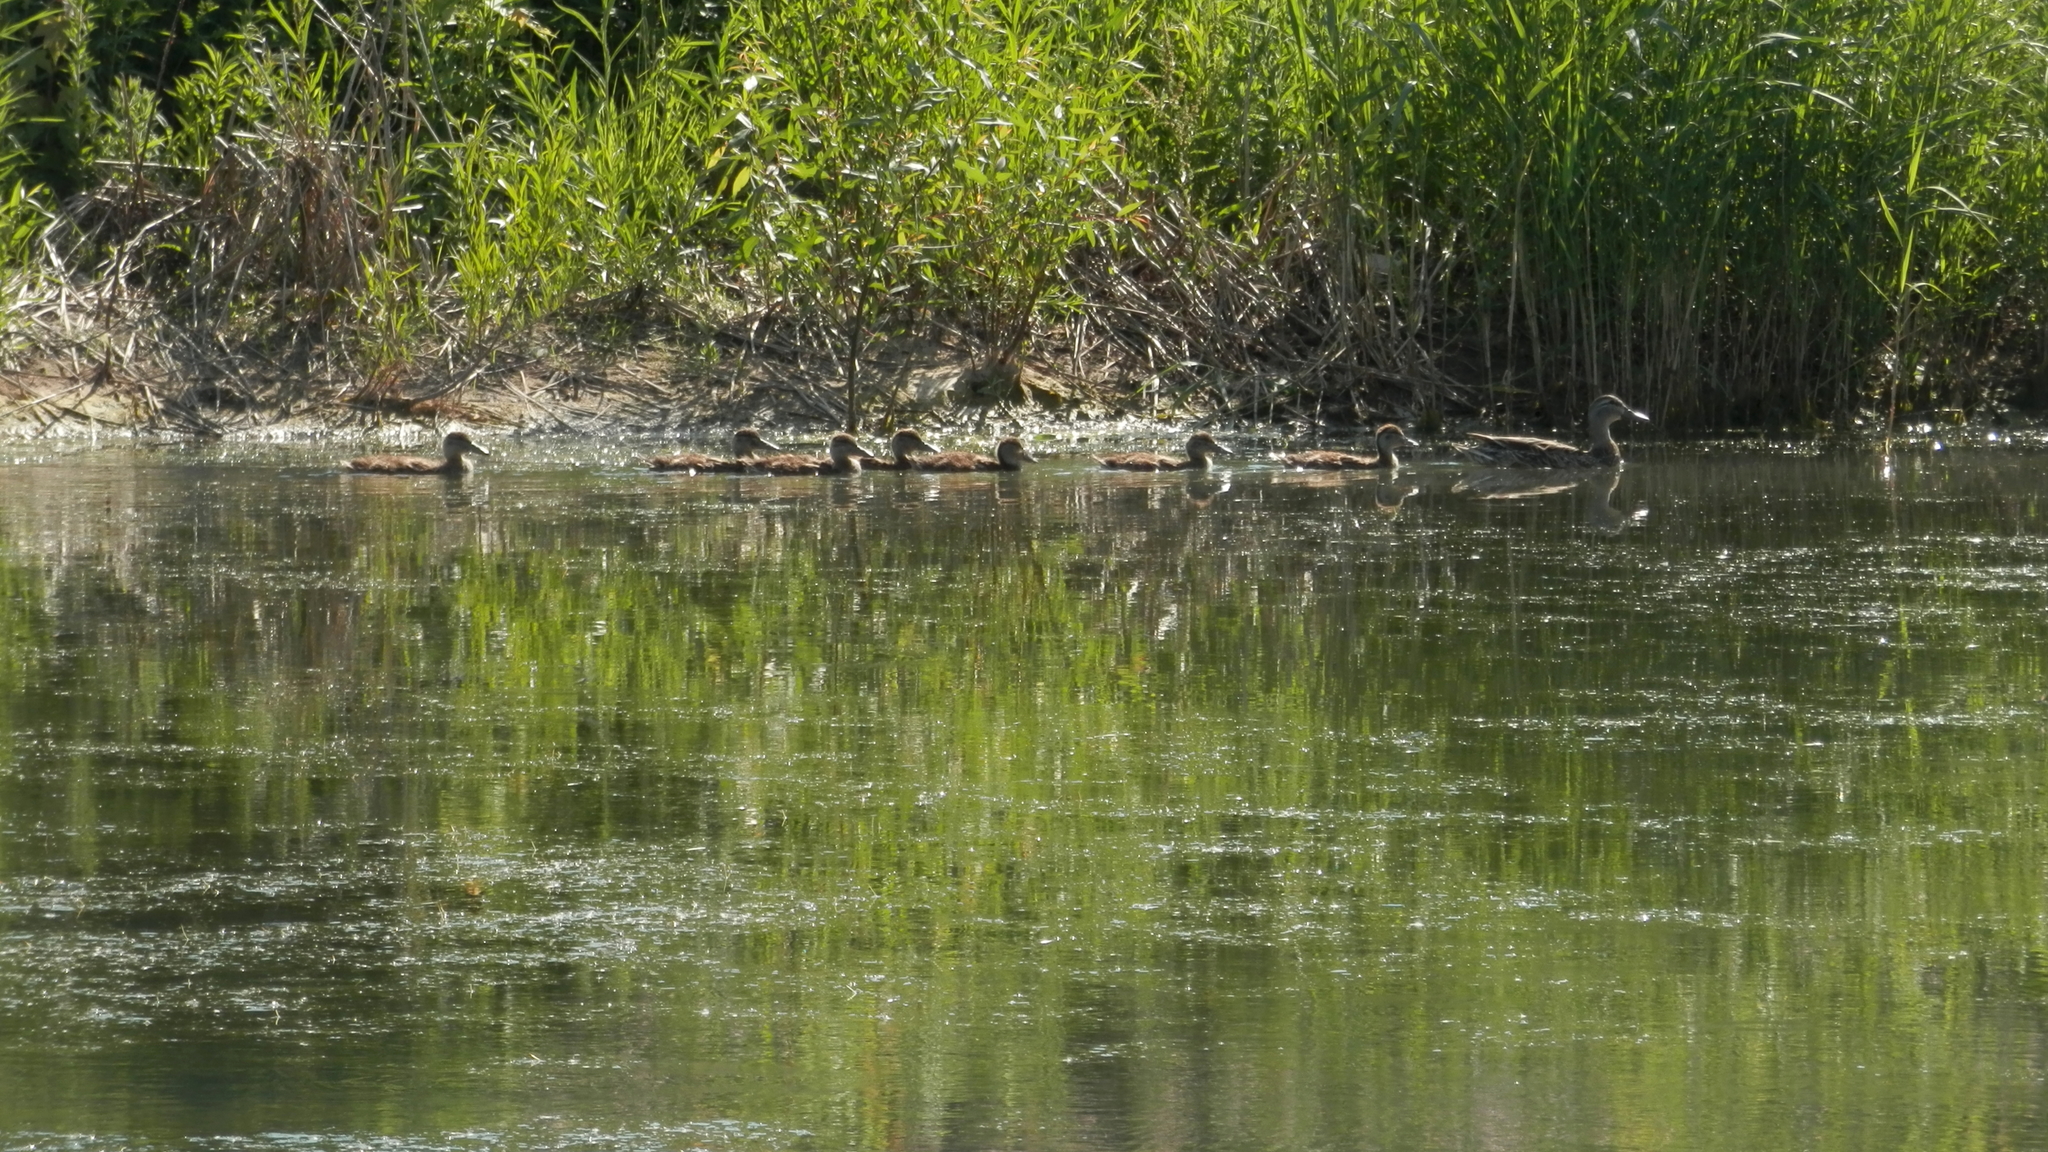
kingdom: Animalia
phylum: Chordata
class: Aves
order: Anseriformes
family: Anatidae
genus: Anas
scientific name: Anas platyrhynchos
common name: Mallard
